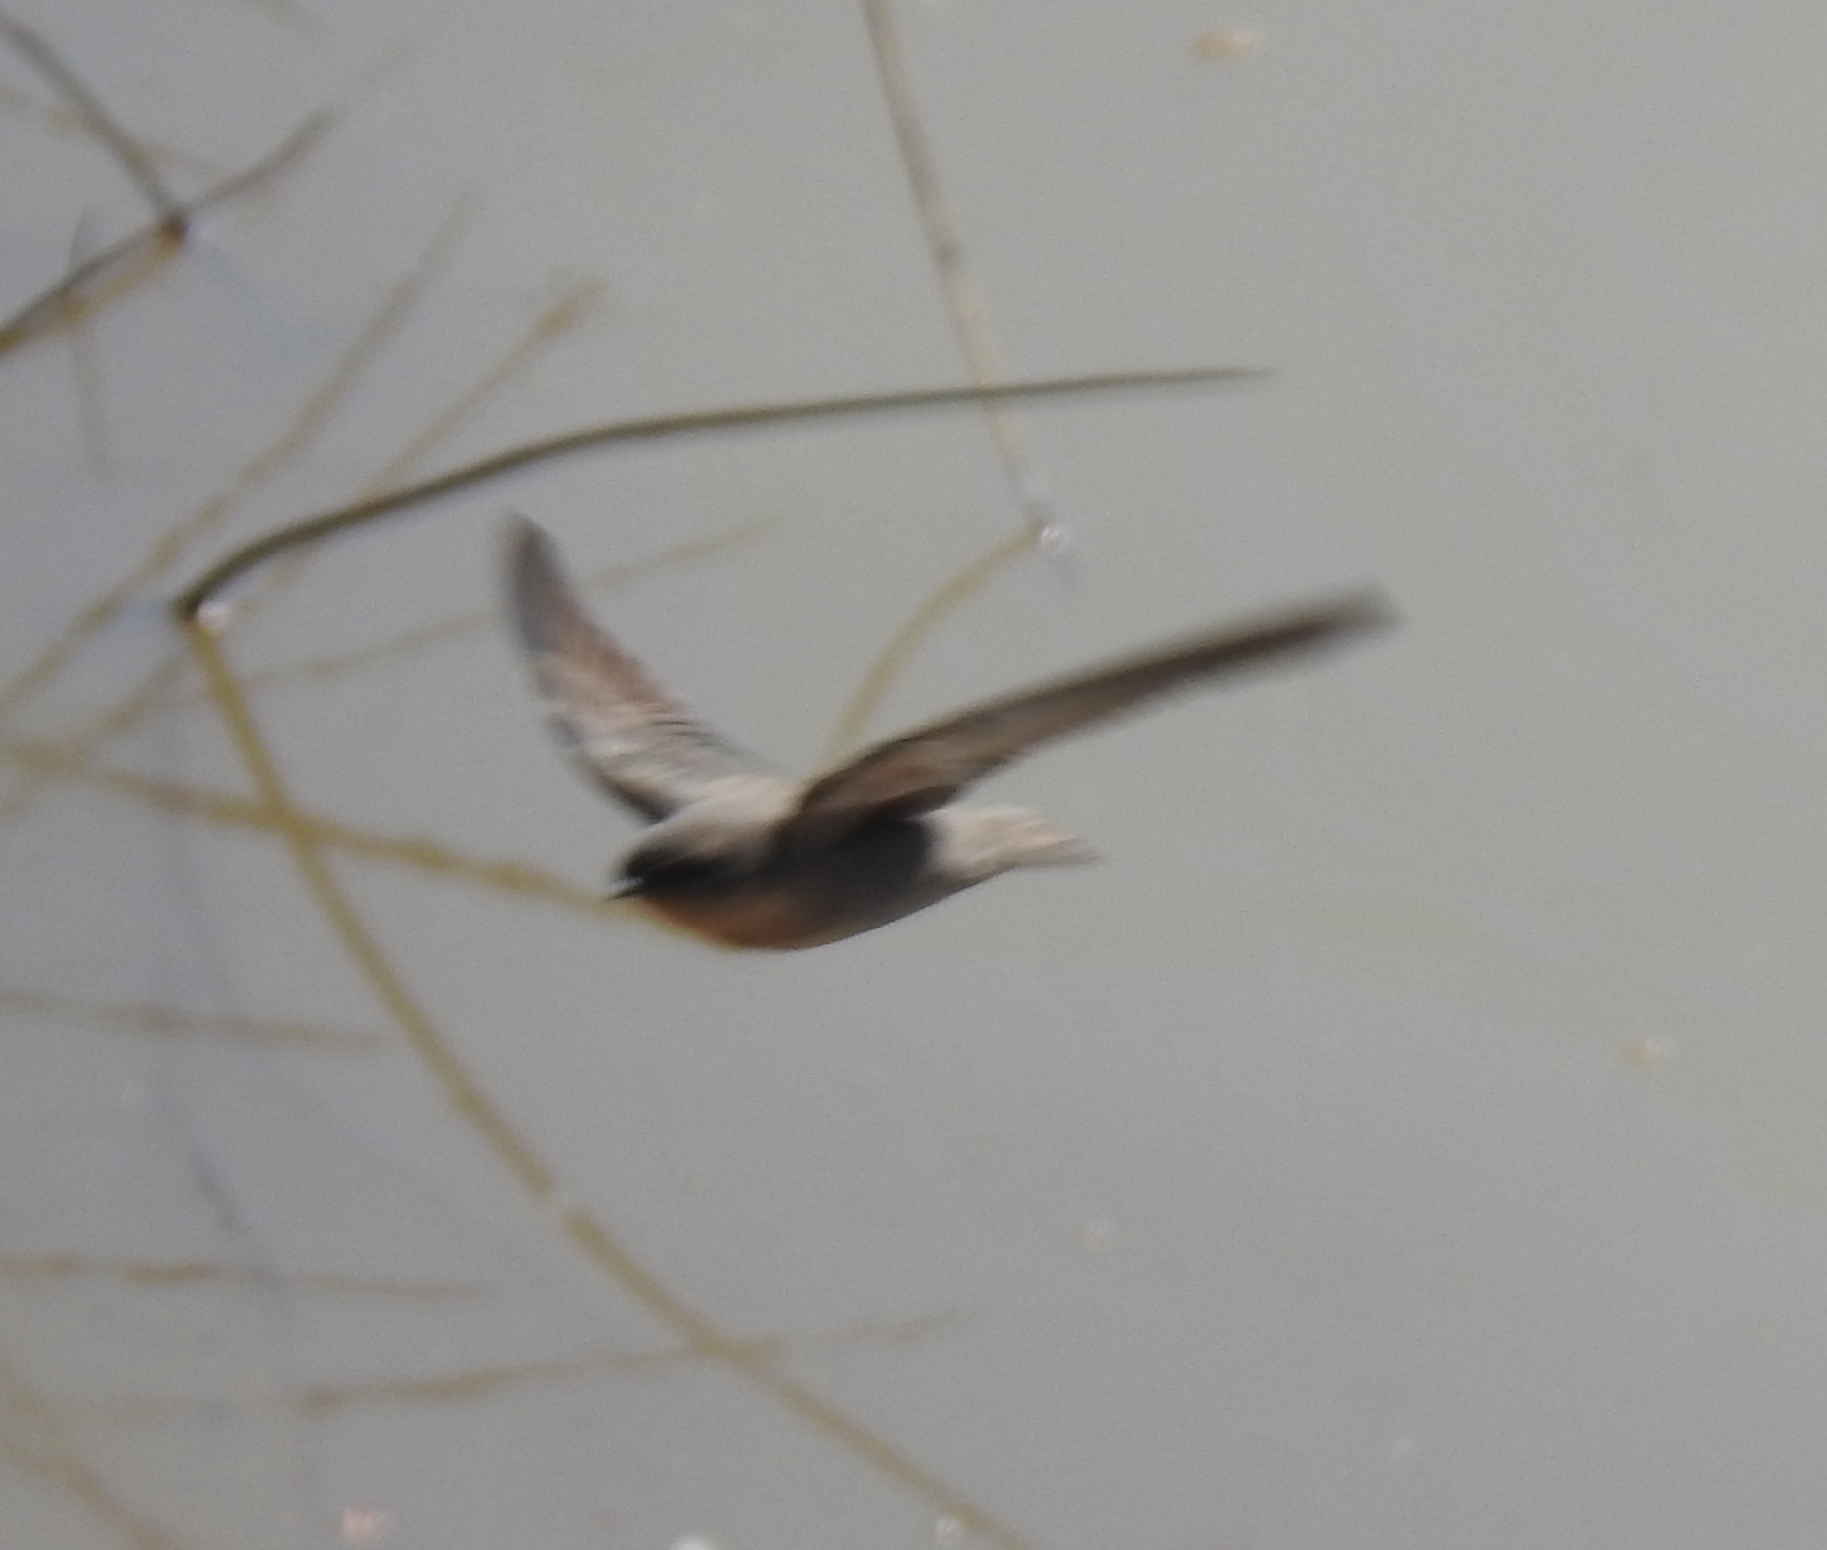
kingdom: Animalia
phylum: Chordata
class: Aves
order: Passeriformes
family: Hirundinidae
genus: Ptyonoprogne
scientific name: Ptyonoprogne fuligula
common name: Rock martin
